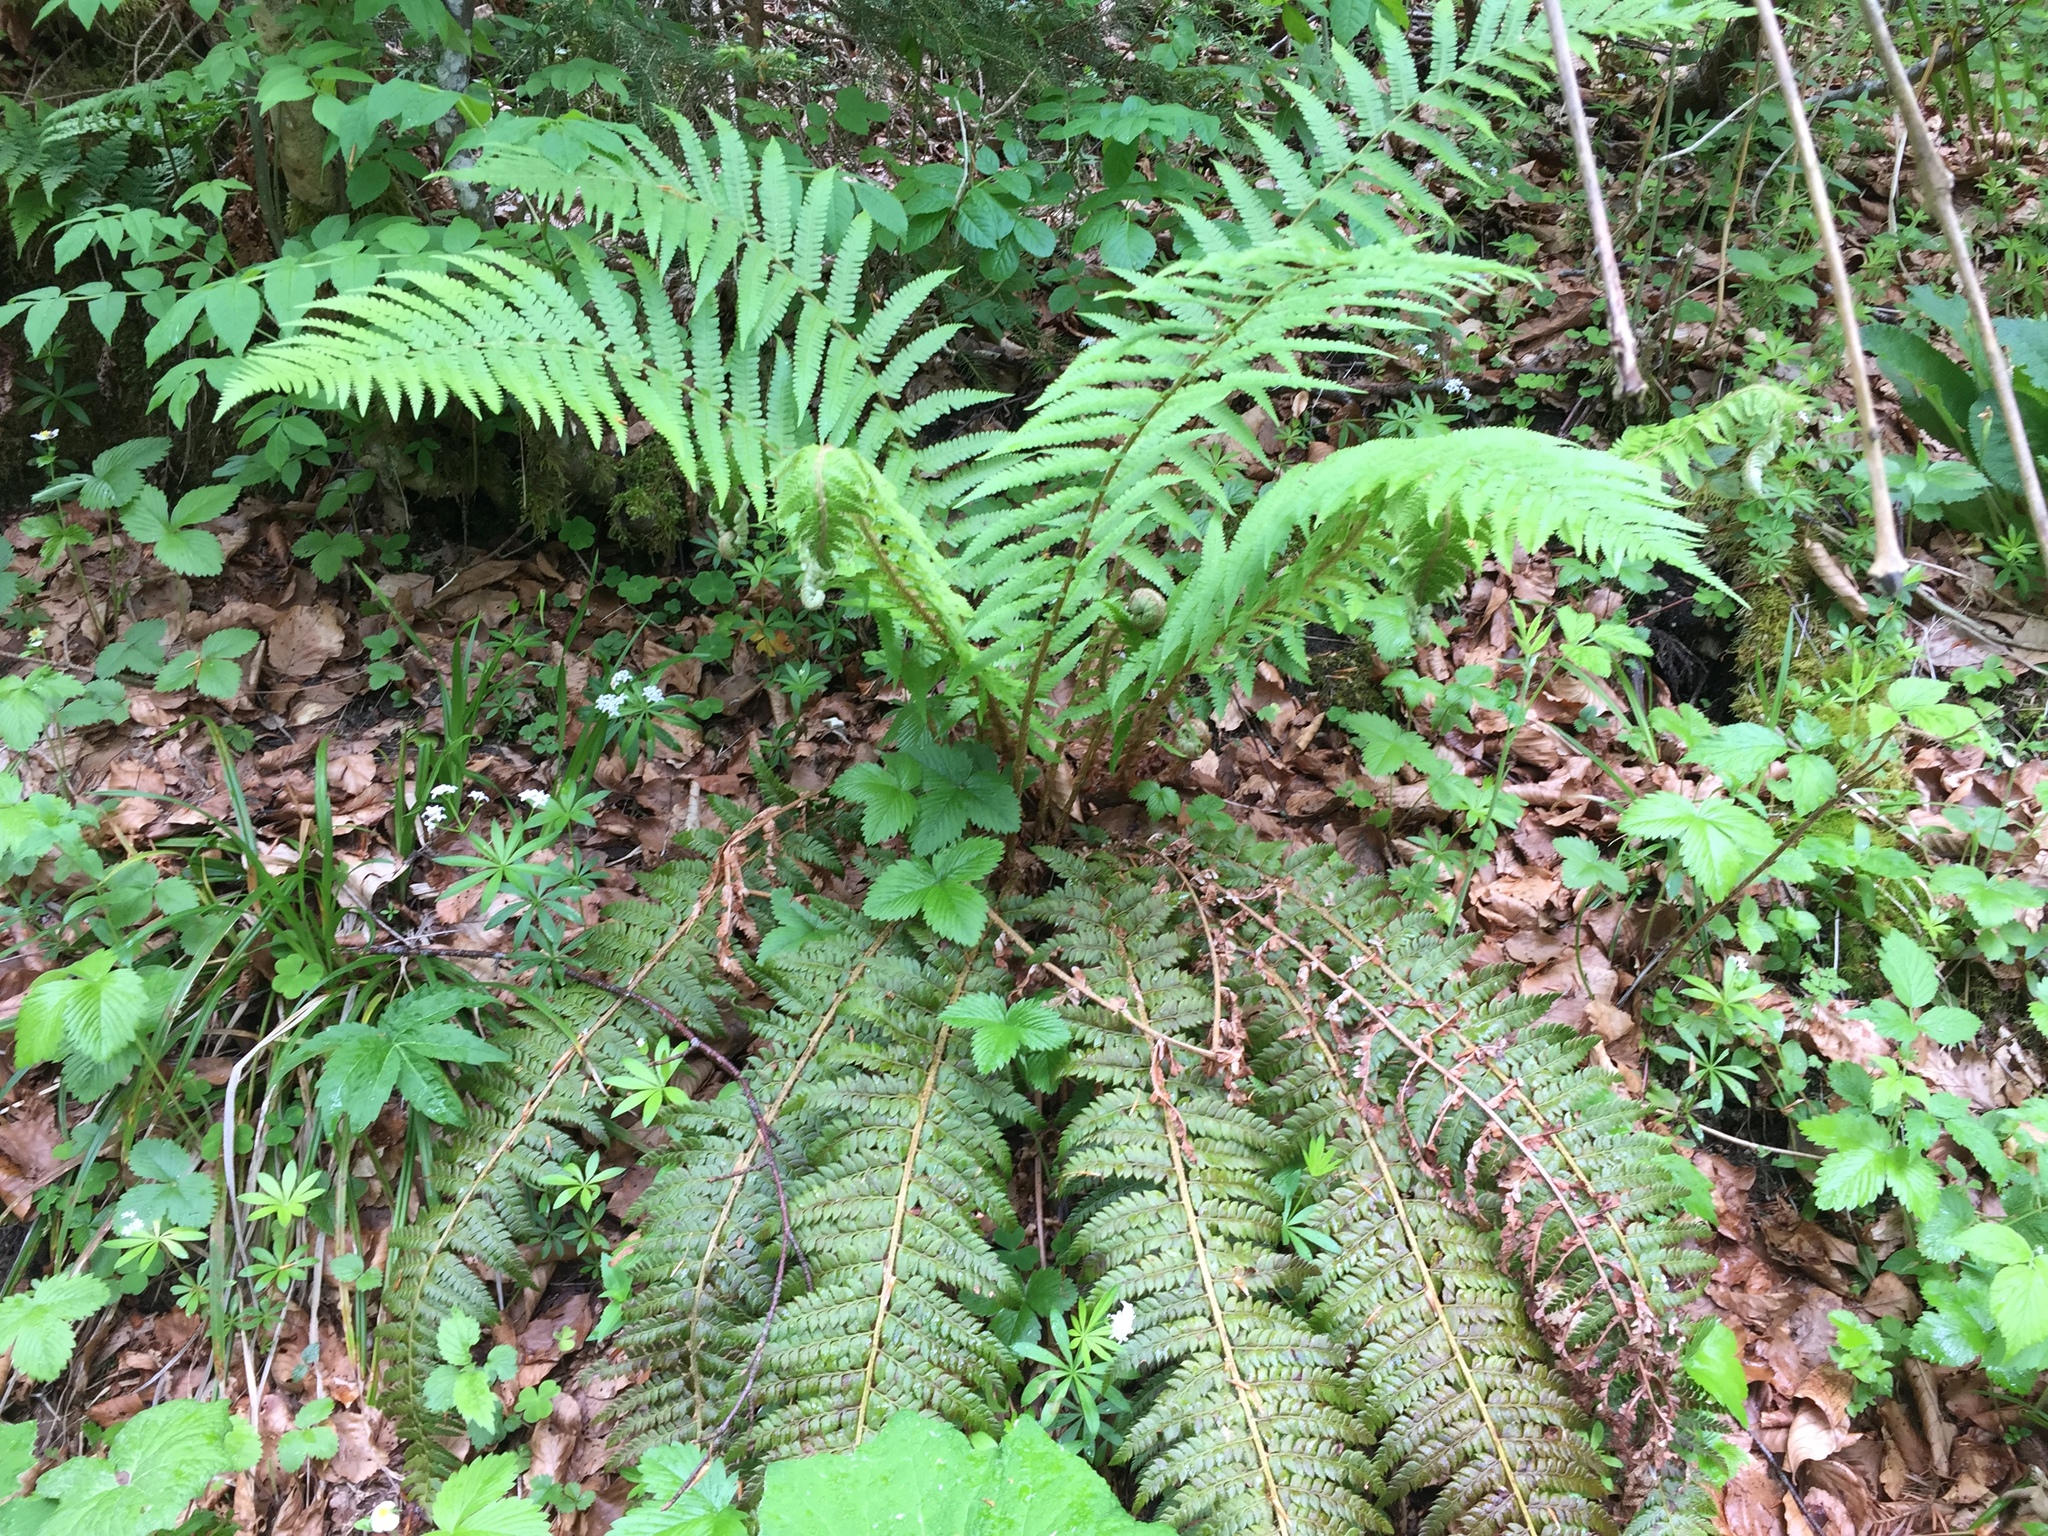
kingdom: Plantae
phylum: Tracheophyta
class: Polypodiopsida
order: Polypodiales
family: Dryopteridaceae
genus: Polystichum
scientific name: Polystichum aculeatum
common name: Hard shield-fern
